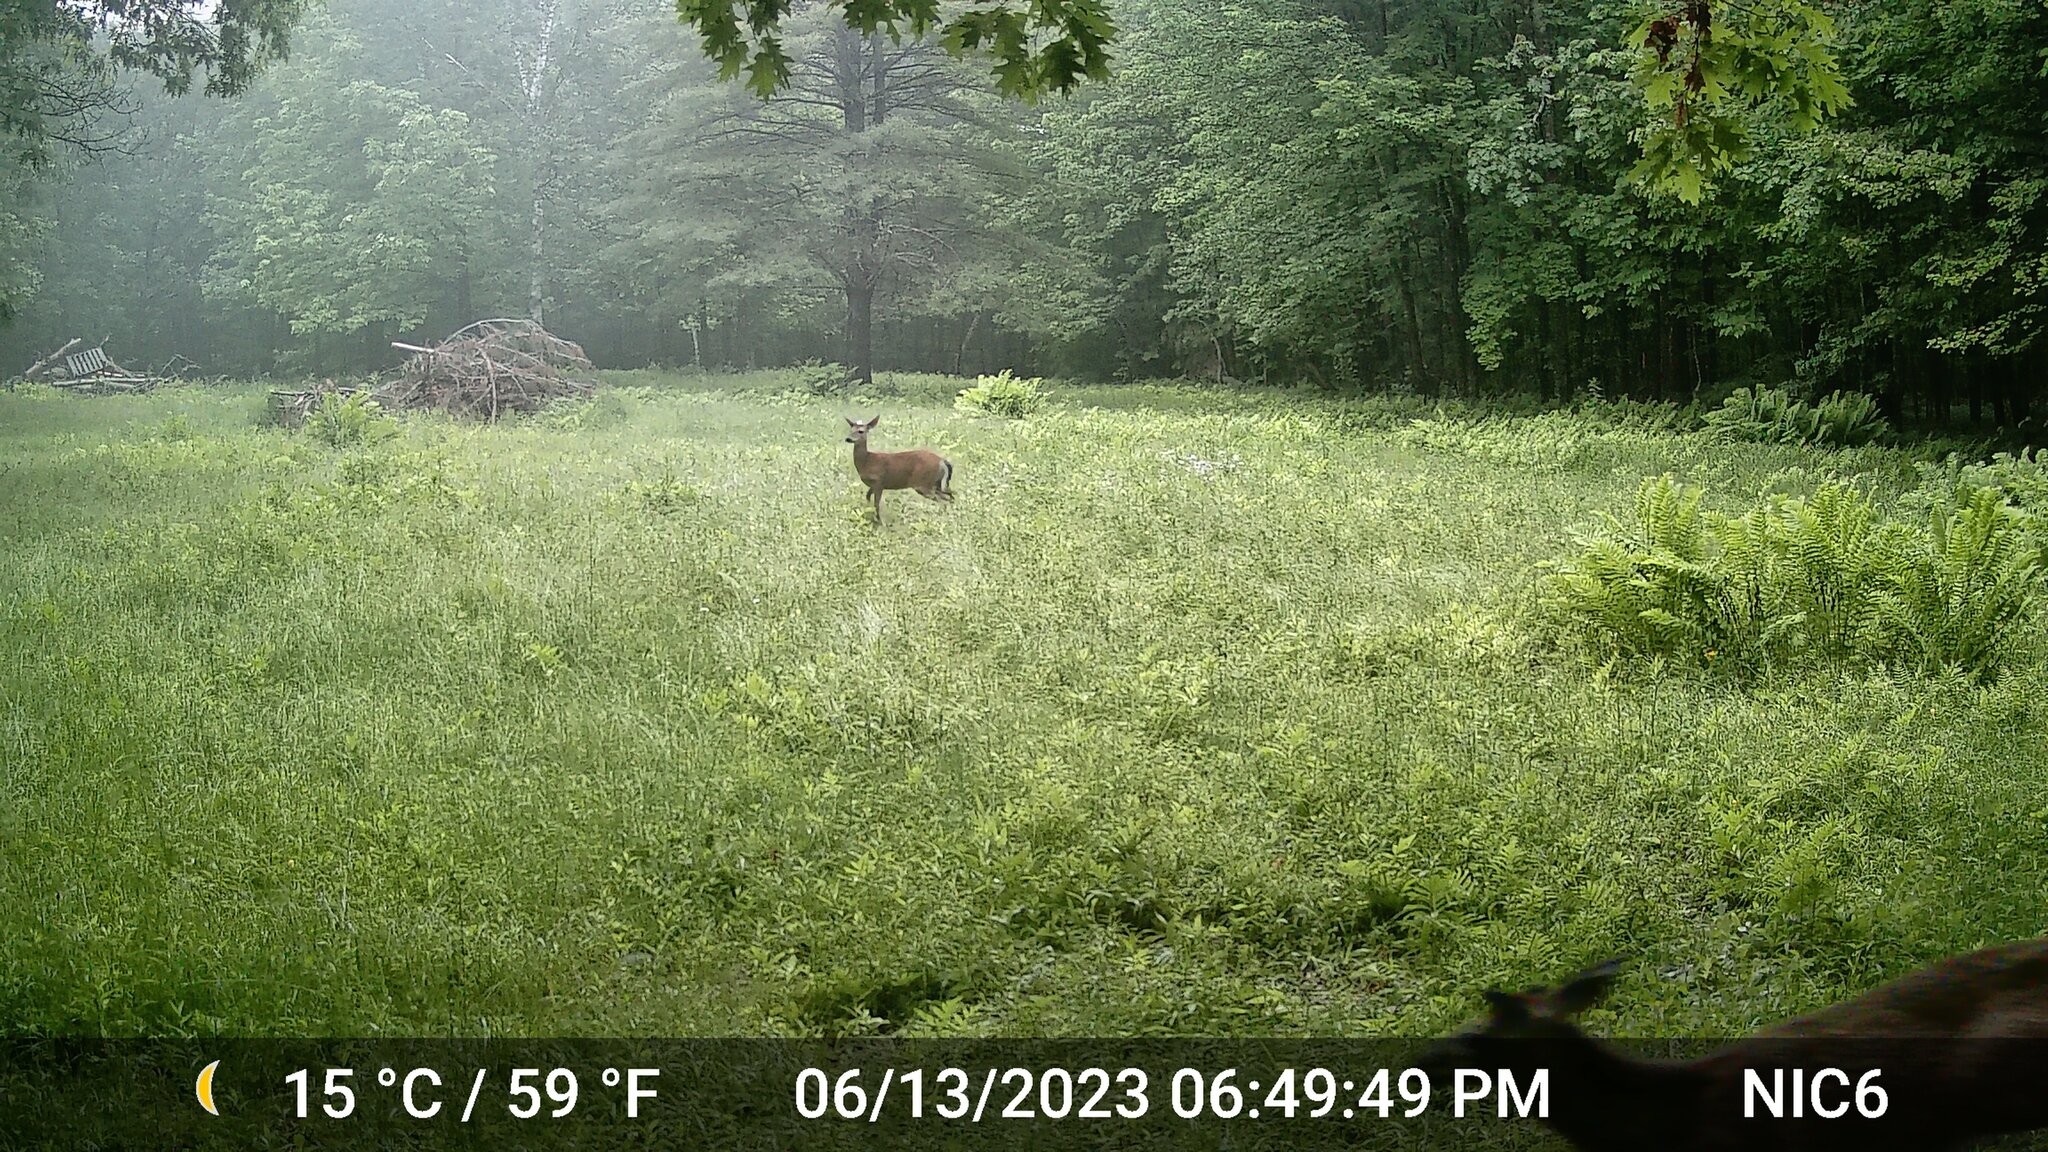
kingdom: Animalia
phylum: Chordata
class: Mammalia
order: Artiodactyla
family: Cervidae
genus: Odocoileus
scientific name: Odocoileus virginianus
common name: White-tailed deer
